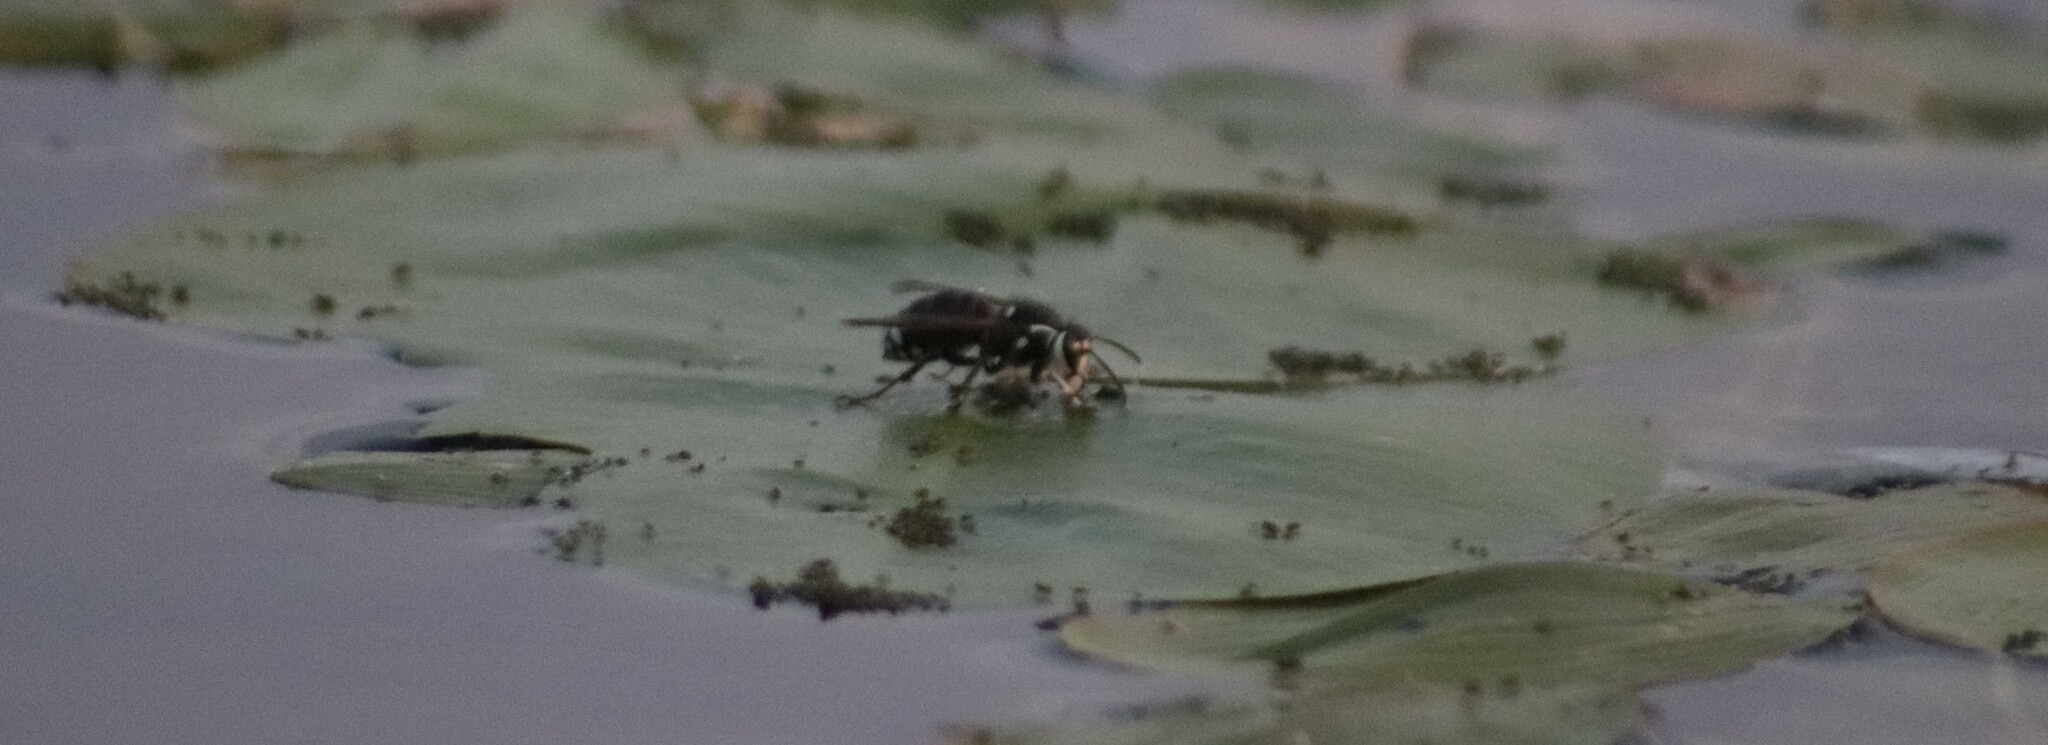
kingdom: Animalia
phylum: Arthropoda
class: Insecta
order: Hymenoptera
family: Vespidae
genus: Dolichovespula
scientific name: Dolichovespula maculata
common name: Bald-faced hornet
